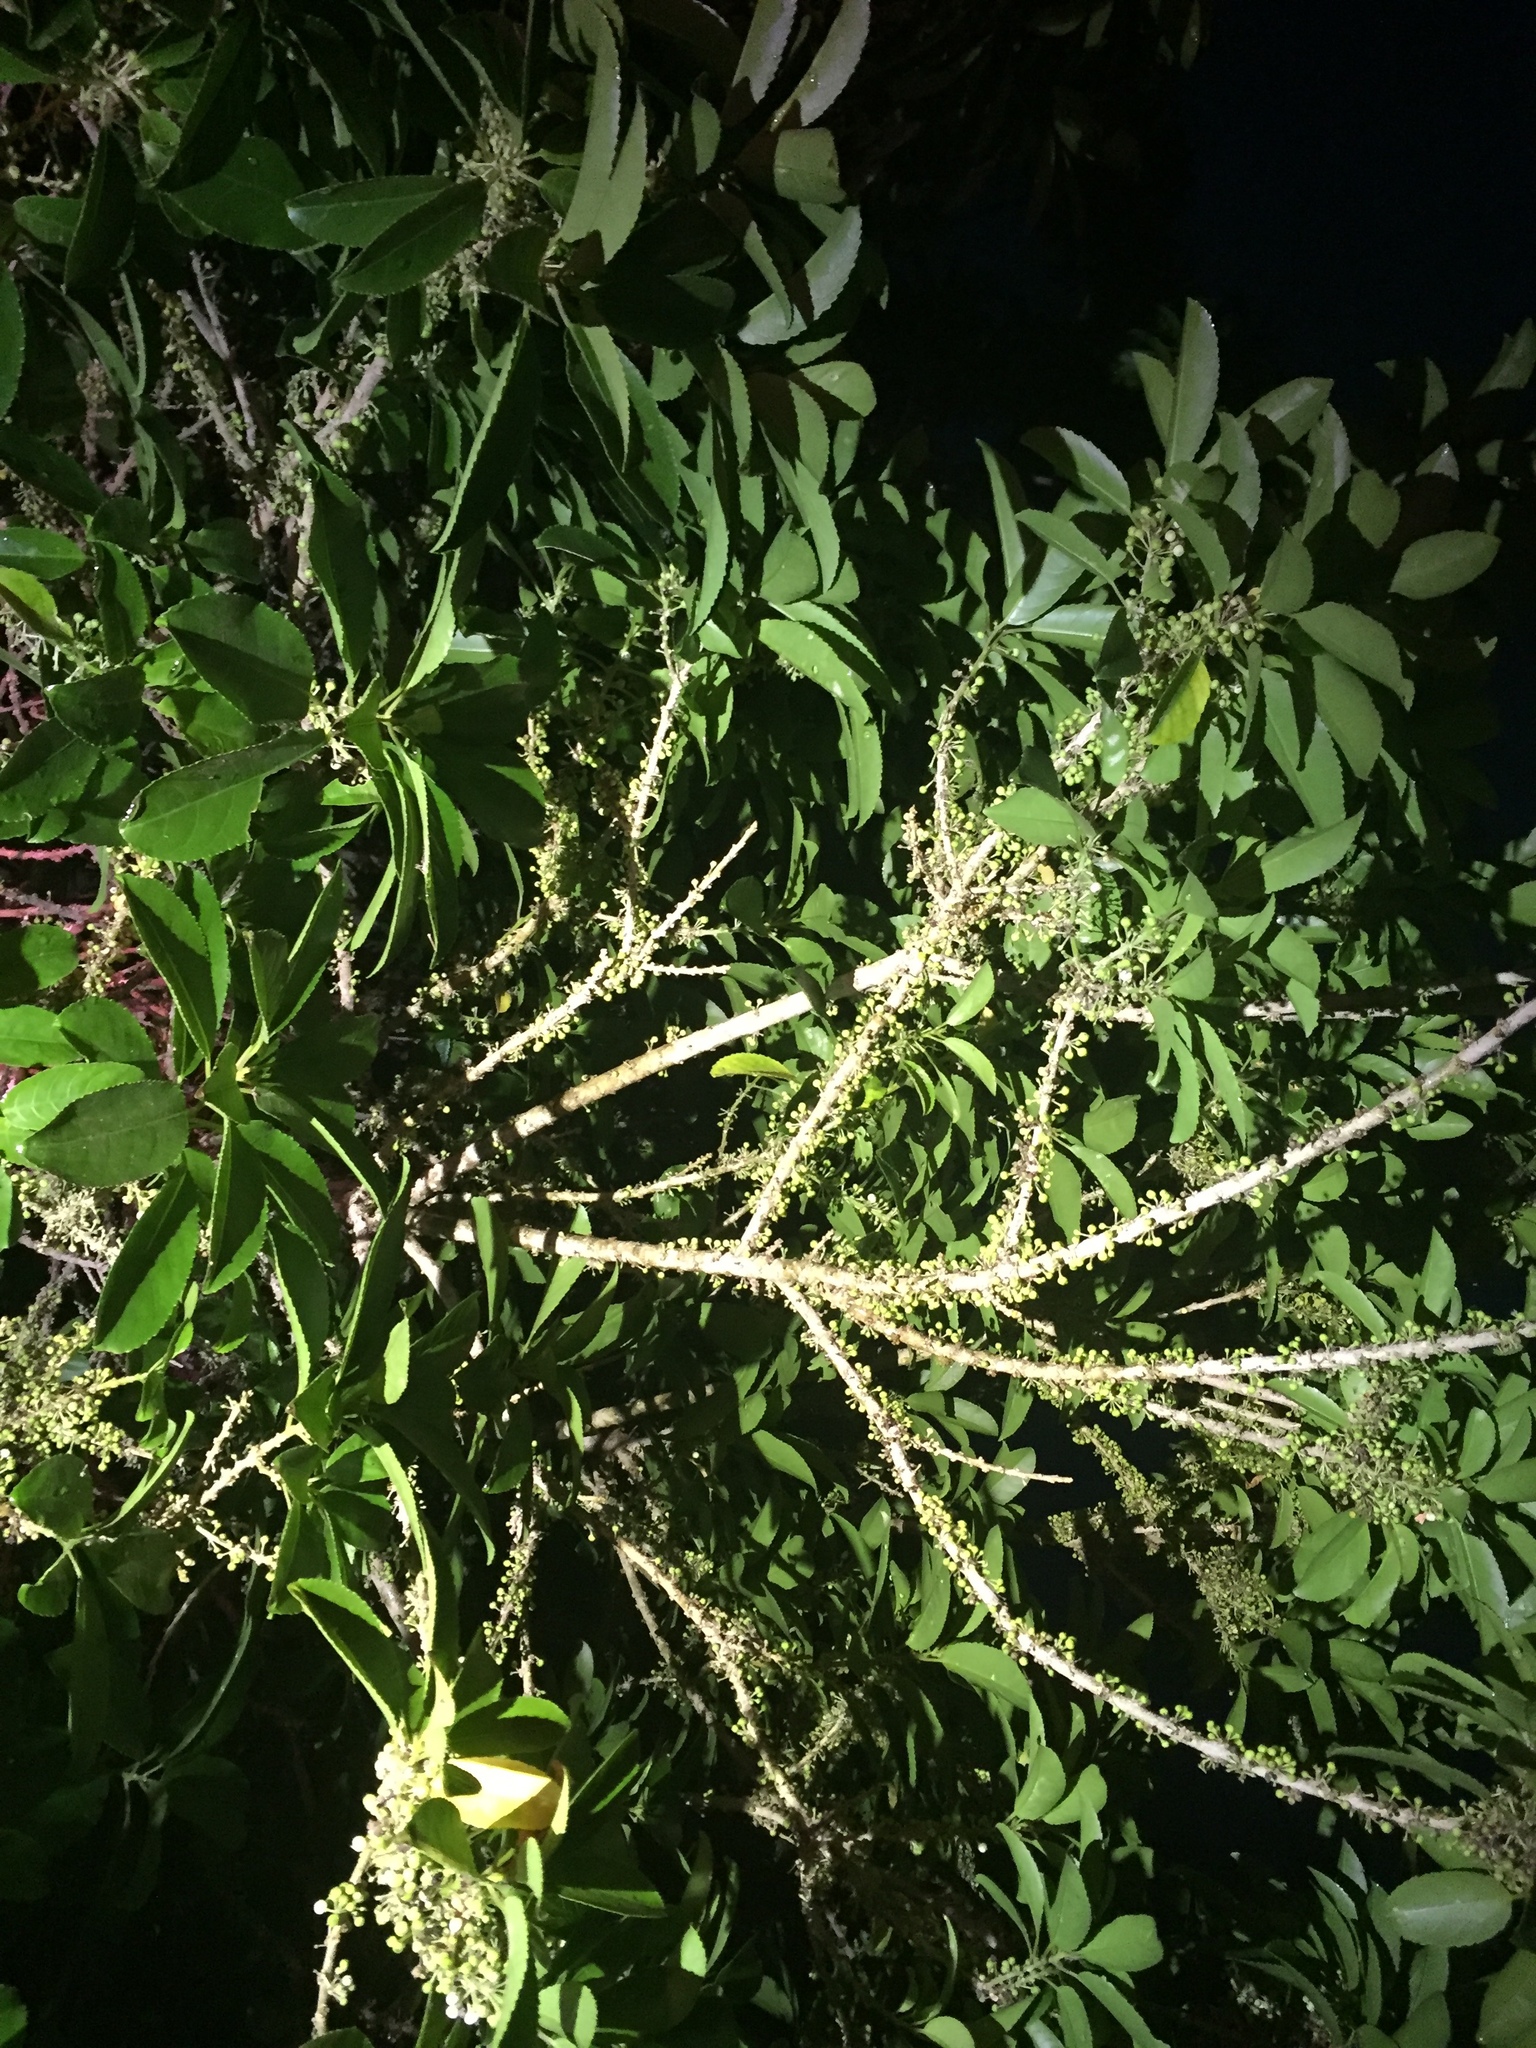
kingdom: Plantae
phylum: Tracheophyta
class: Magnoliopsida
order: Malpighiales
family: Violaceae
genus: Melicytus
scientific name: Melicytus ramiflorus
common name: Mahoe
